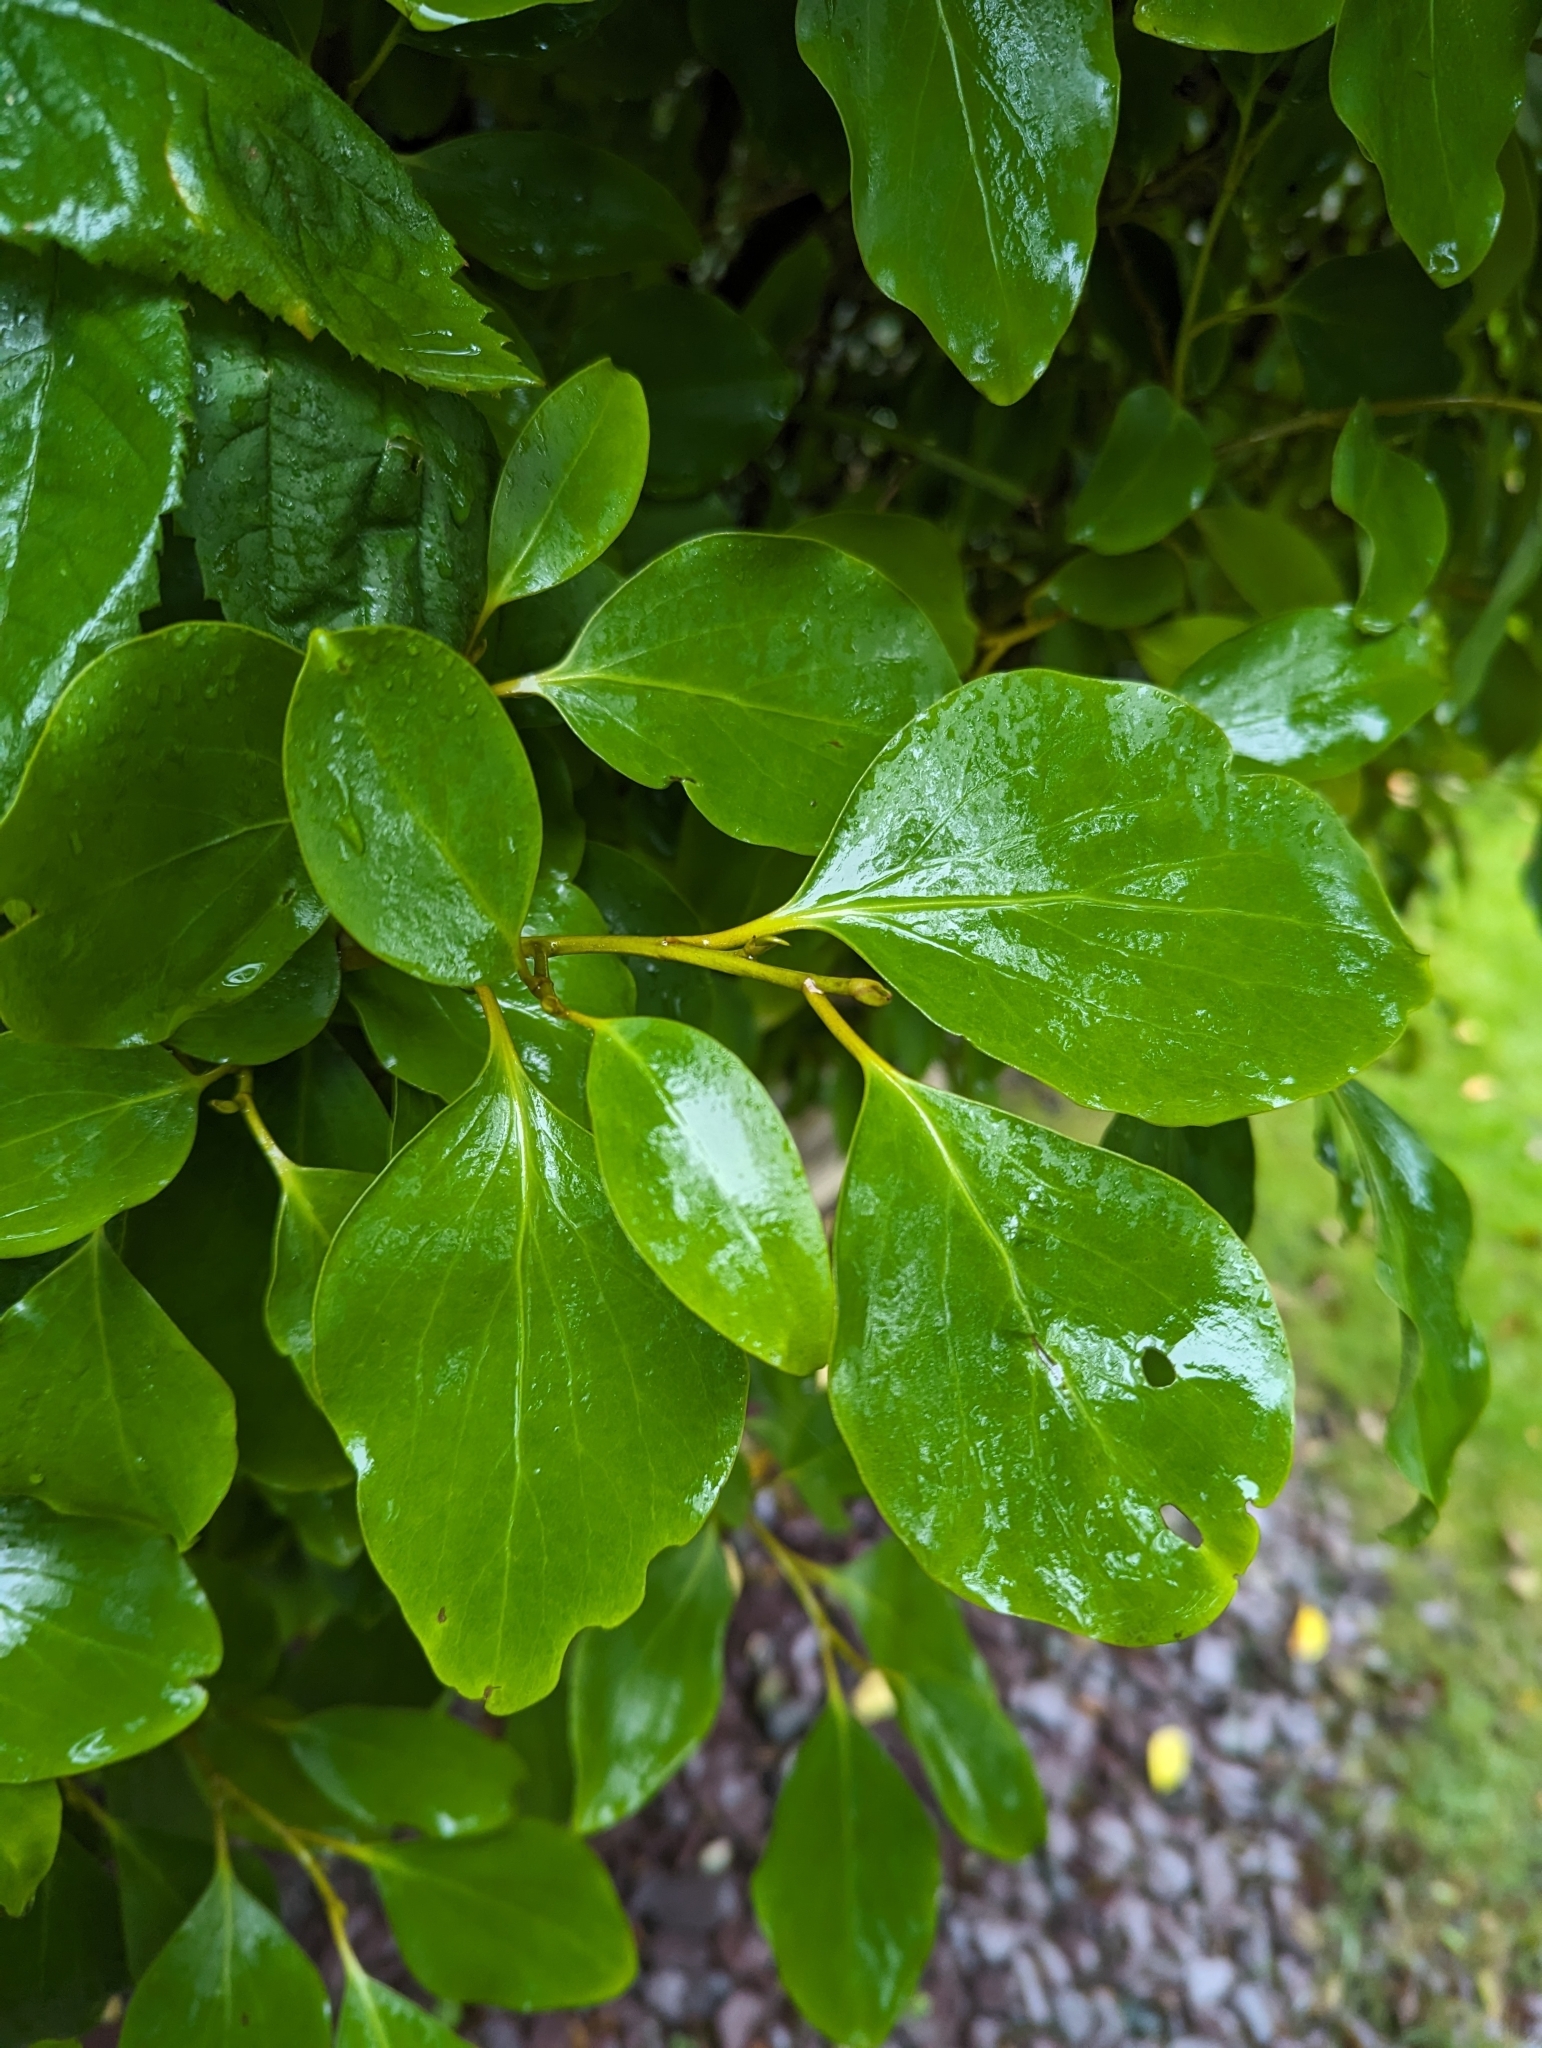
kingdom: Plantae
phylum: Tracheophyta
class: Magnoliopsida
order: Apiales
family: Griseliniaceae
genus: Griselinia
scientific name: Griselinia littoralis
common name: New zealand broadleaf
